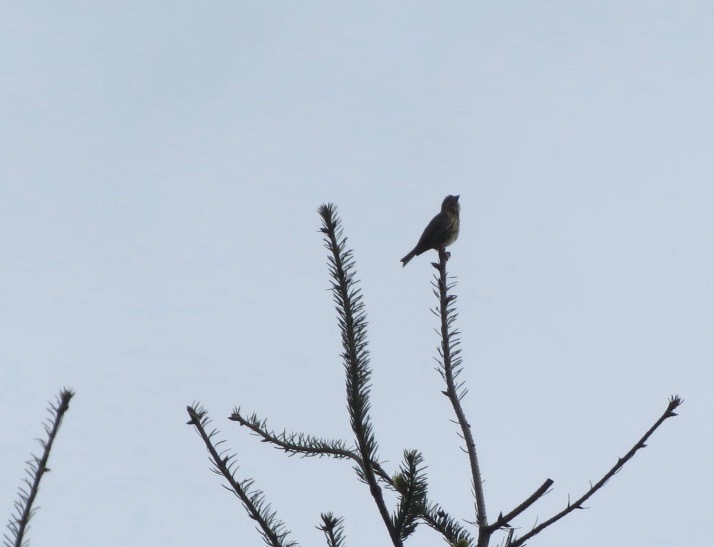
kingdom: Animalia
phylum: Chordata
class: Aves
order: Passeriformes
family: Fringillidae
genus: Haemorhous
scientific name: Haemorhous purpureus
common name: Purple finch
